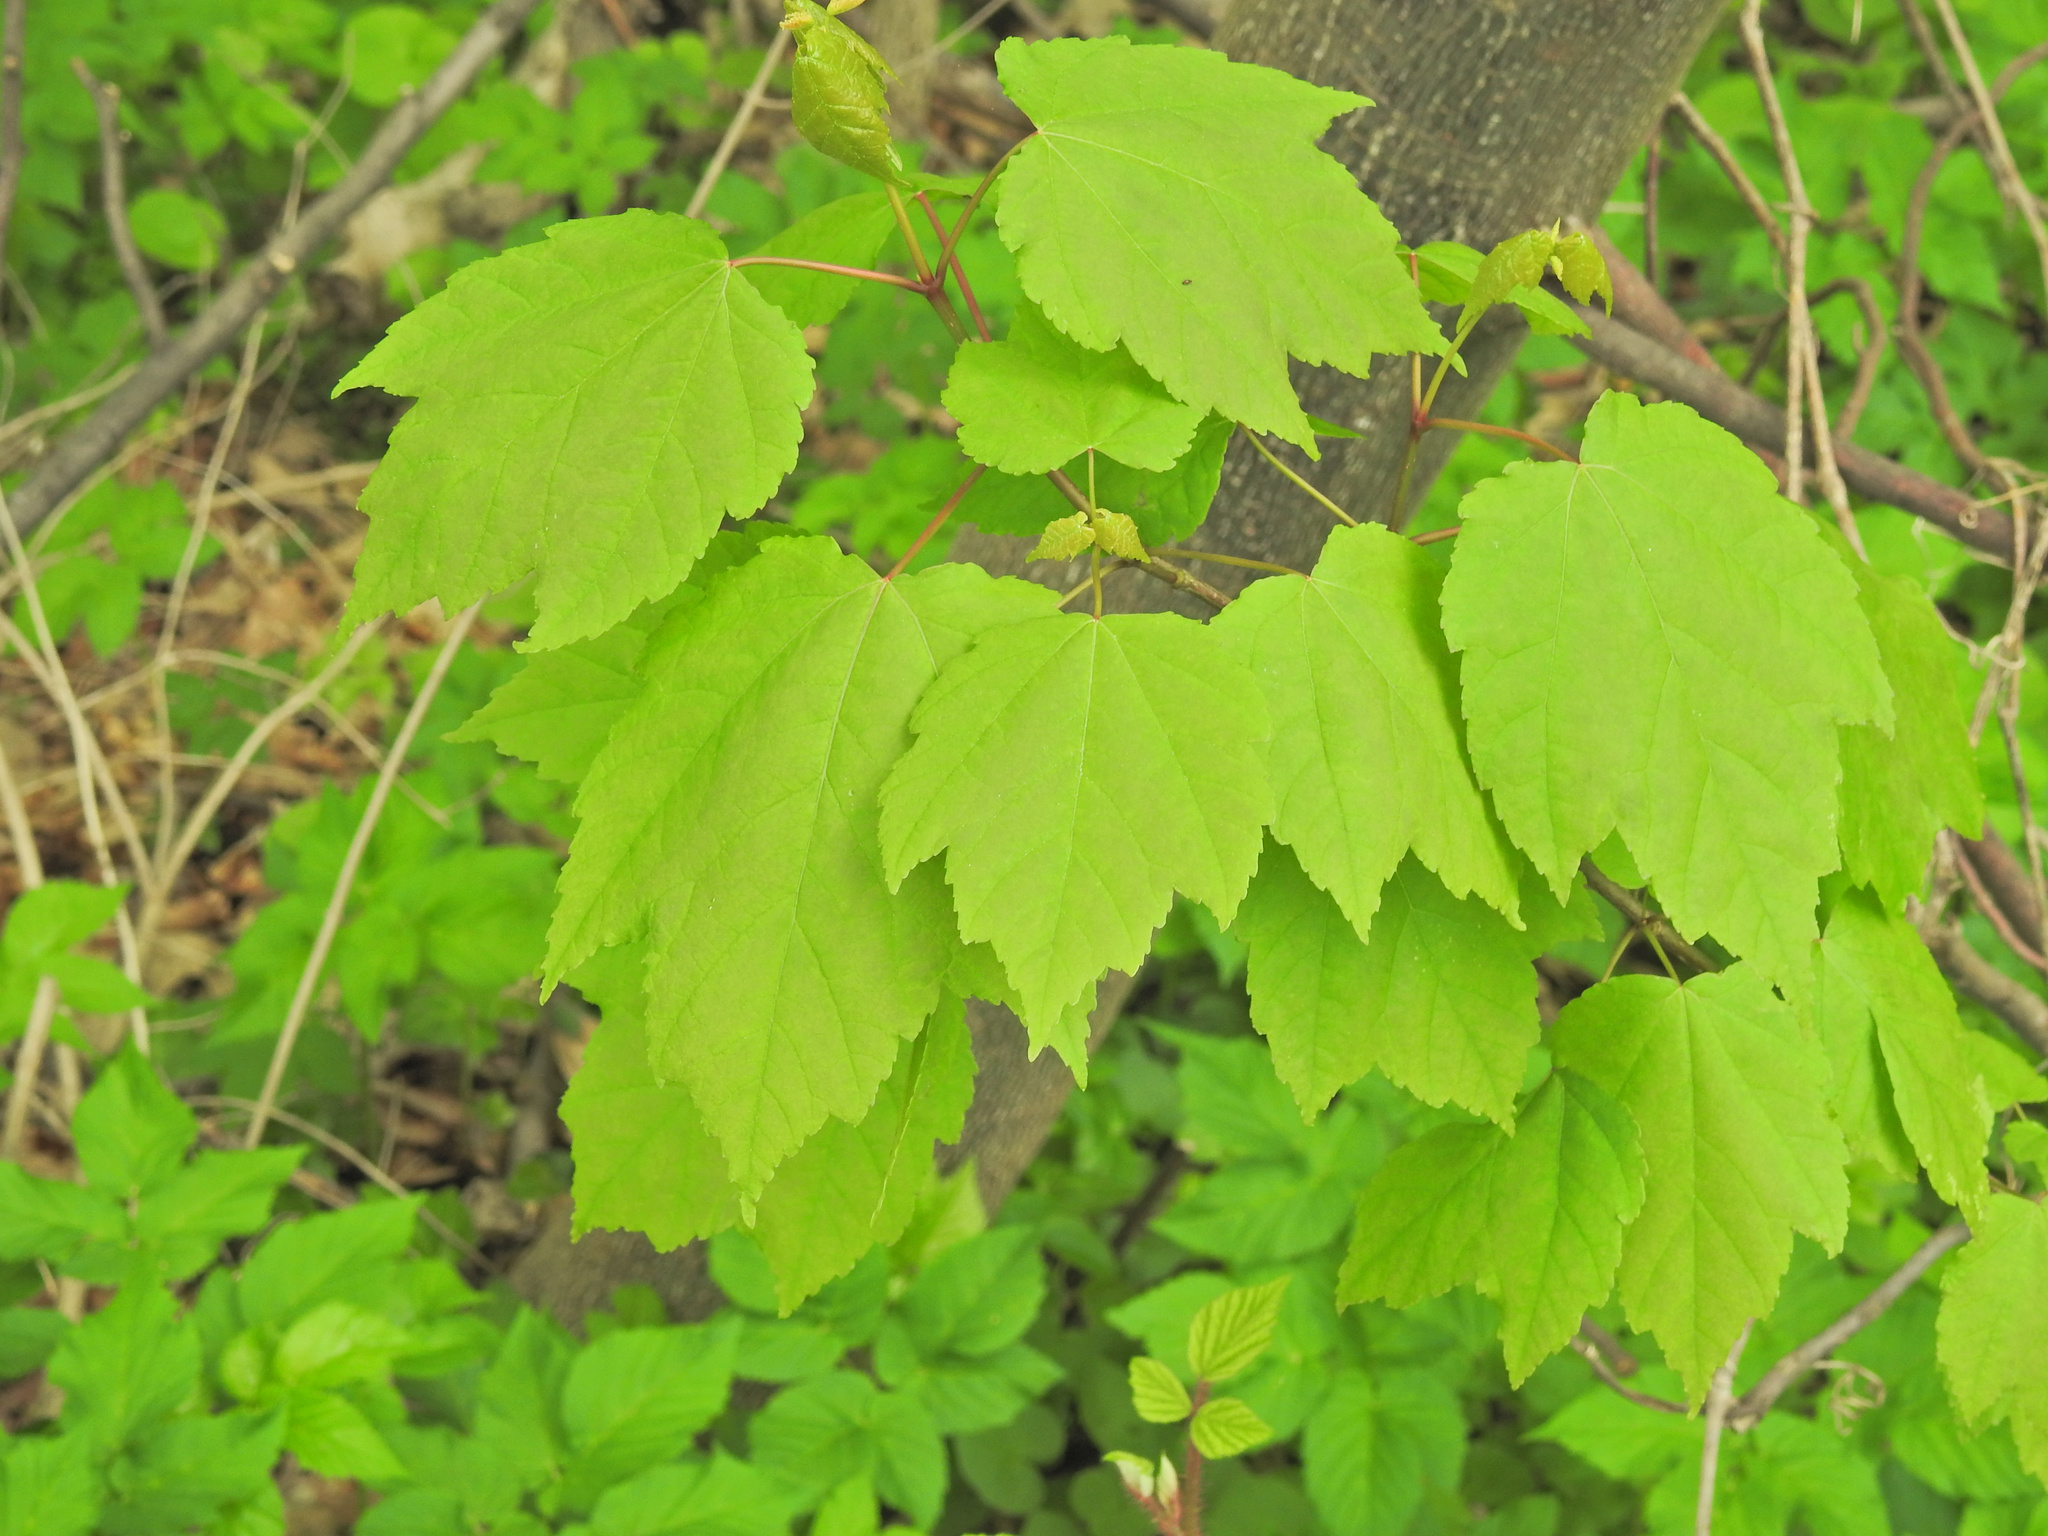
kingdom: Plantae
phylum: Tracheophyta
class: Magnoliopsida
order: Sapindales
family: Sapindaceae
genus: Acer
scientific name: Acer rubrum
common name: Red maple
